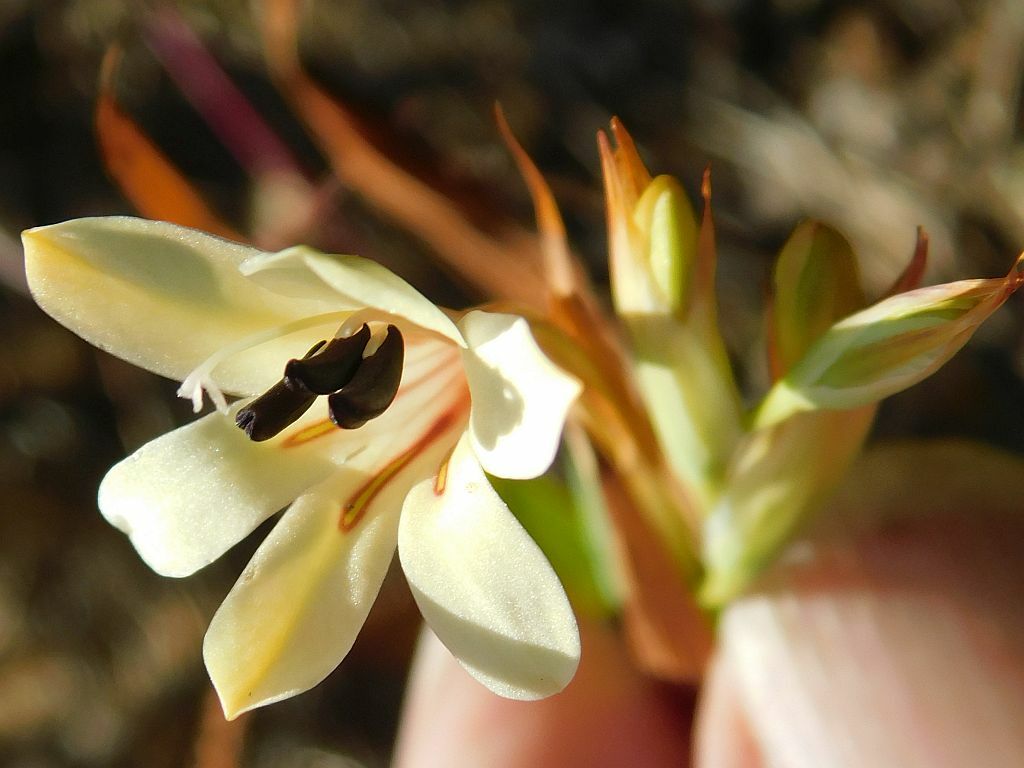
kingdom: Plantae
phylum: Tracheophyta
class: Liliopsida
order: Asparagales
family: Iridaceae
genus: Tritonia
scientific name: Tritonia flabellifolia
